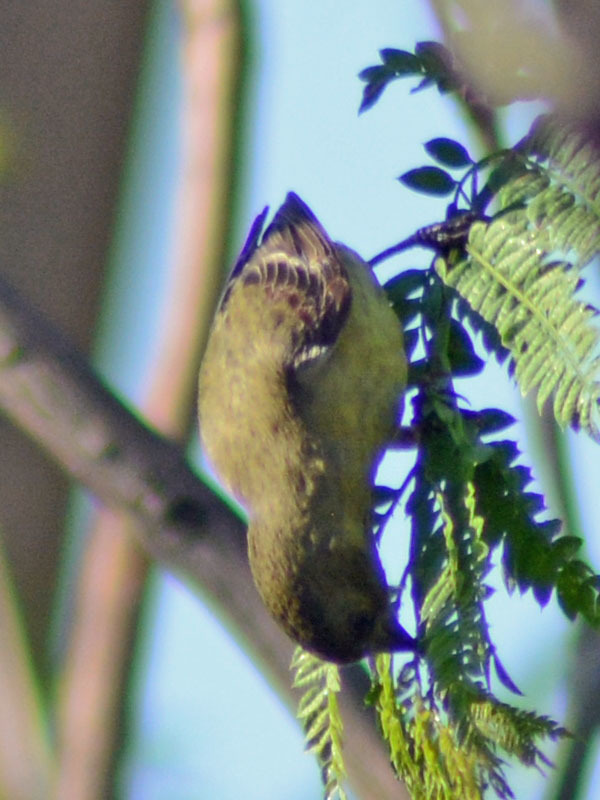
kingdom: Animalia
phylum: Chordata
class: Aves
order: Passeriformes
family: Fringillidae
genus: Spinus
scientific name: Spinus psaltria
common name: Lesser goldfinch
